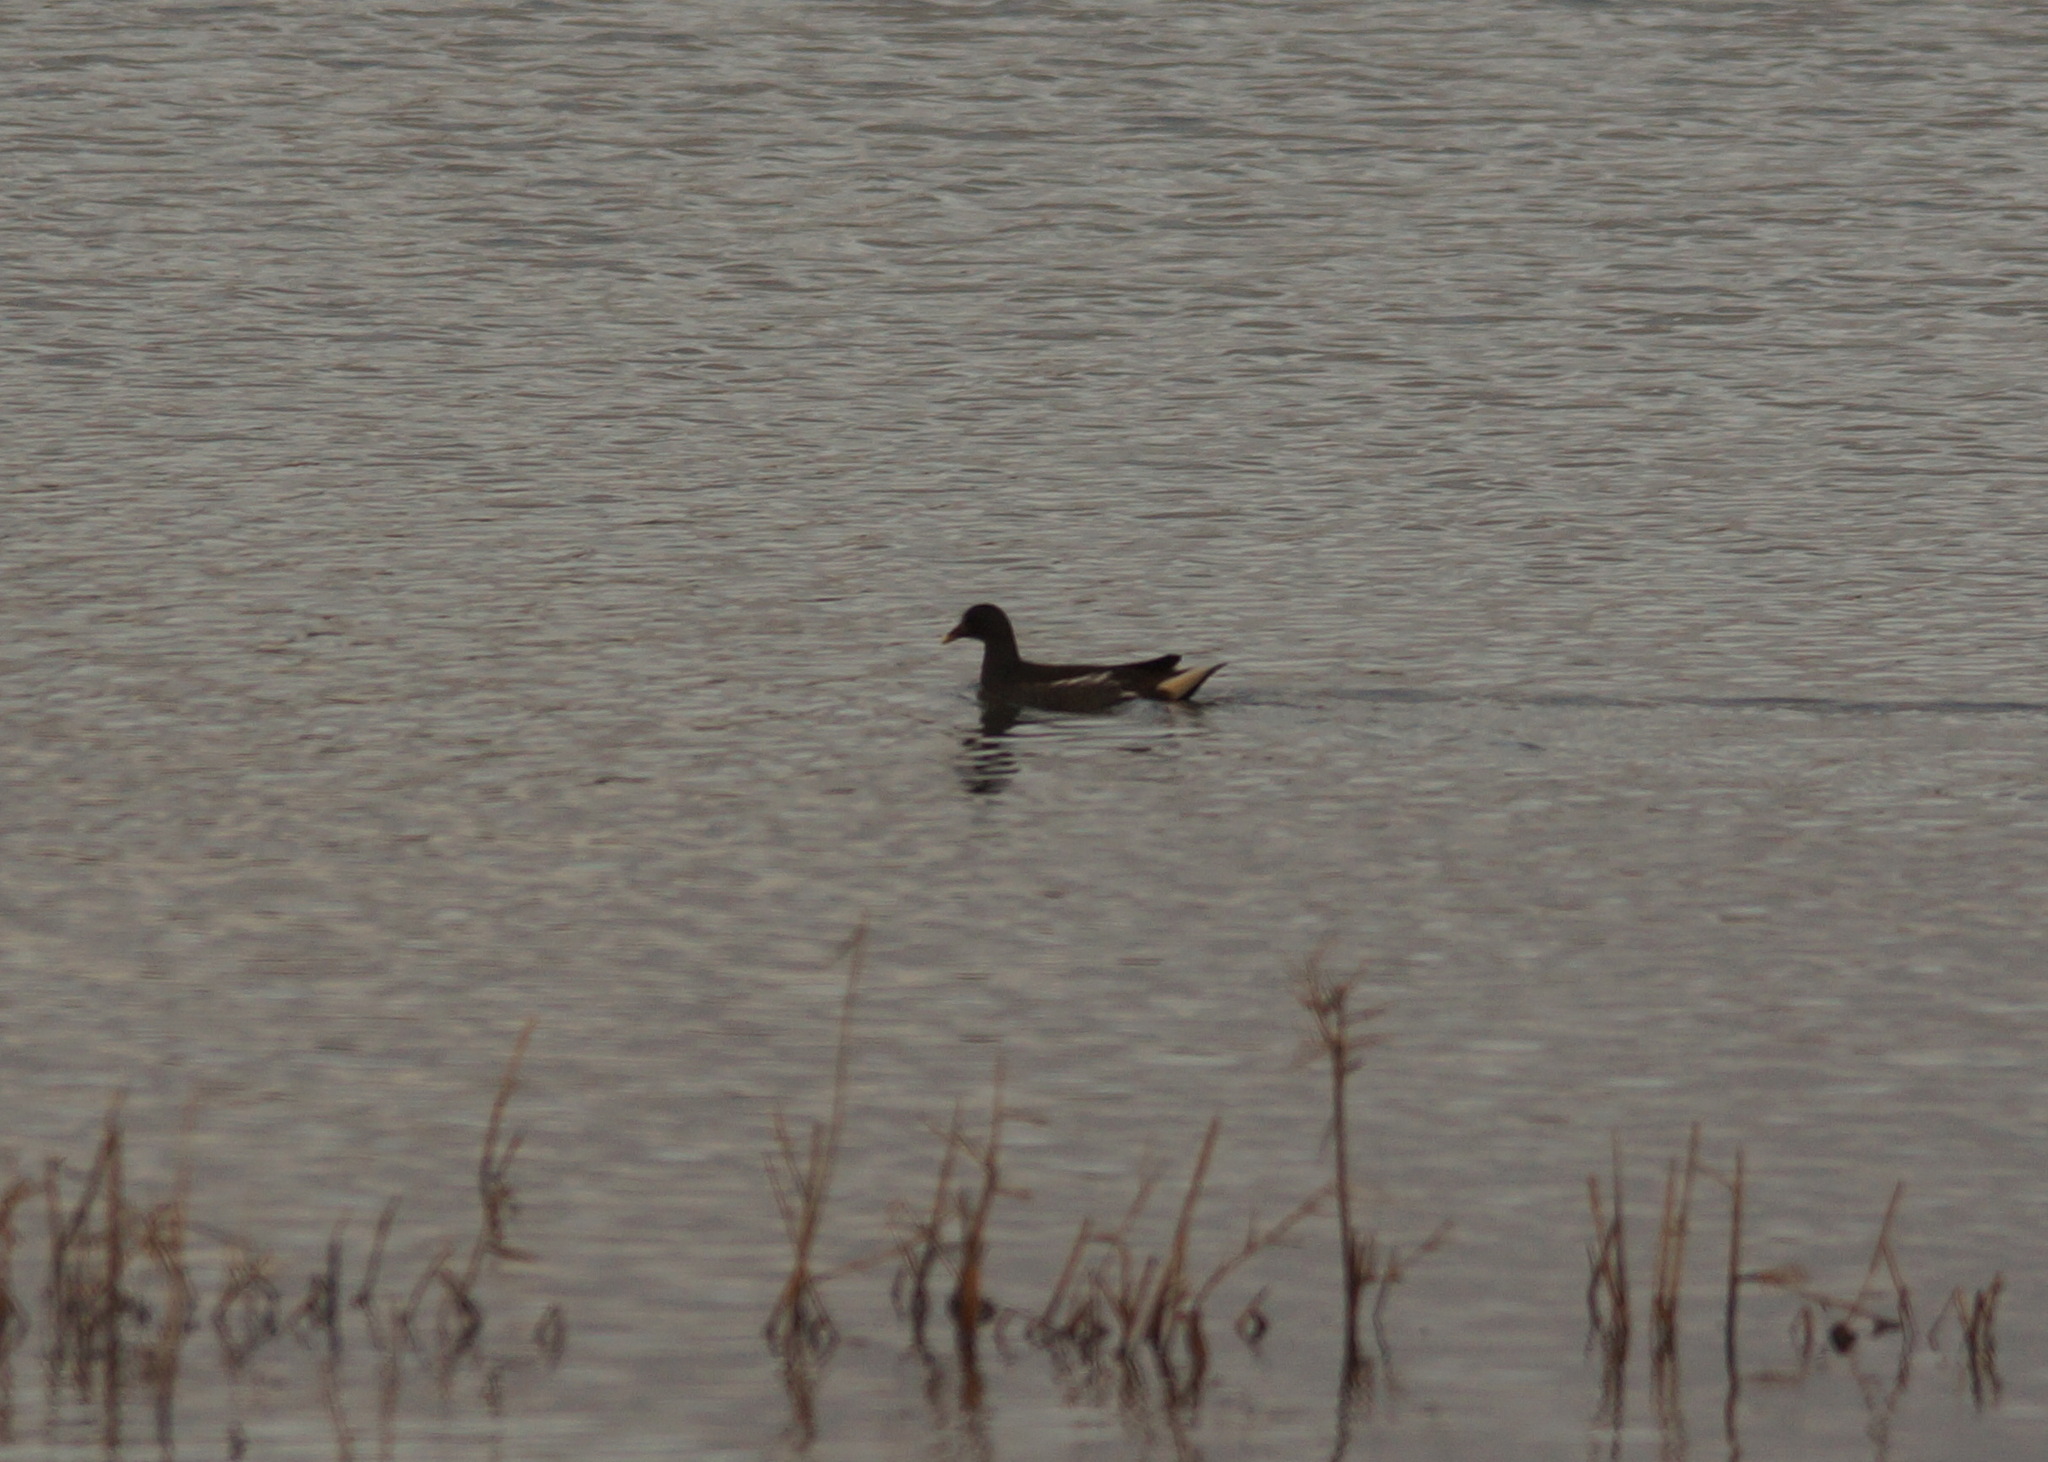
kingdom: Animalia
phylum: Chordata
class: Aves
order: Gruiformes
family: Rallidae
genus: Gallinula
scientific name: Gallinula chloropus
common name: Common moorhen
